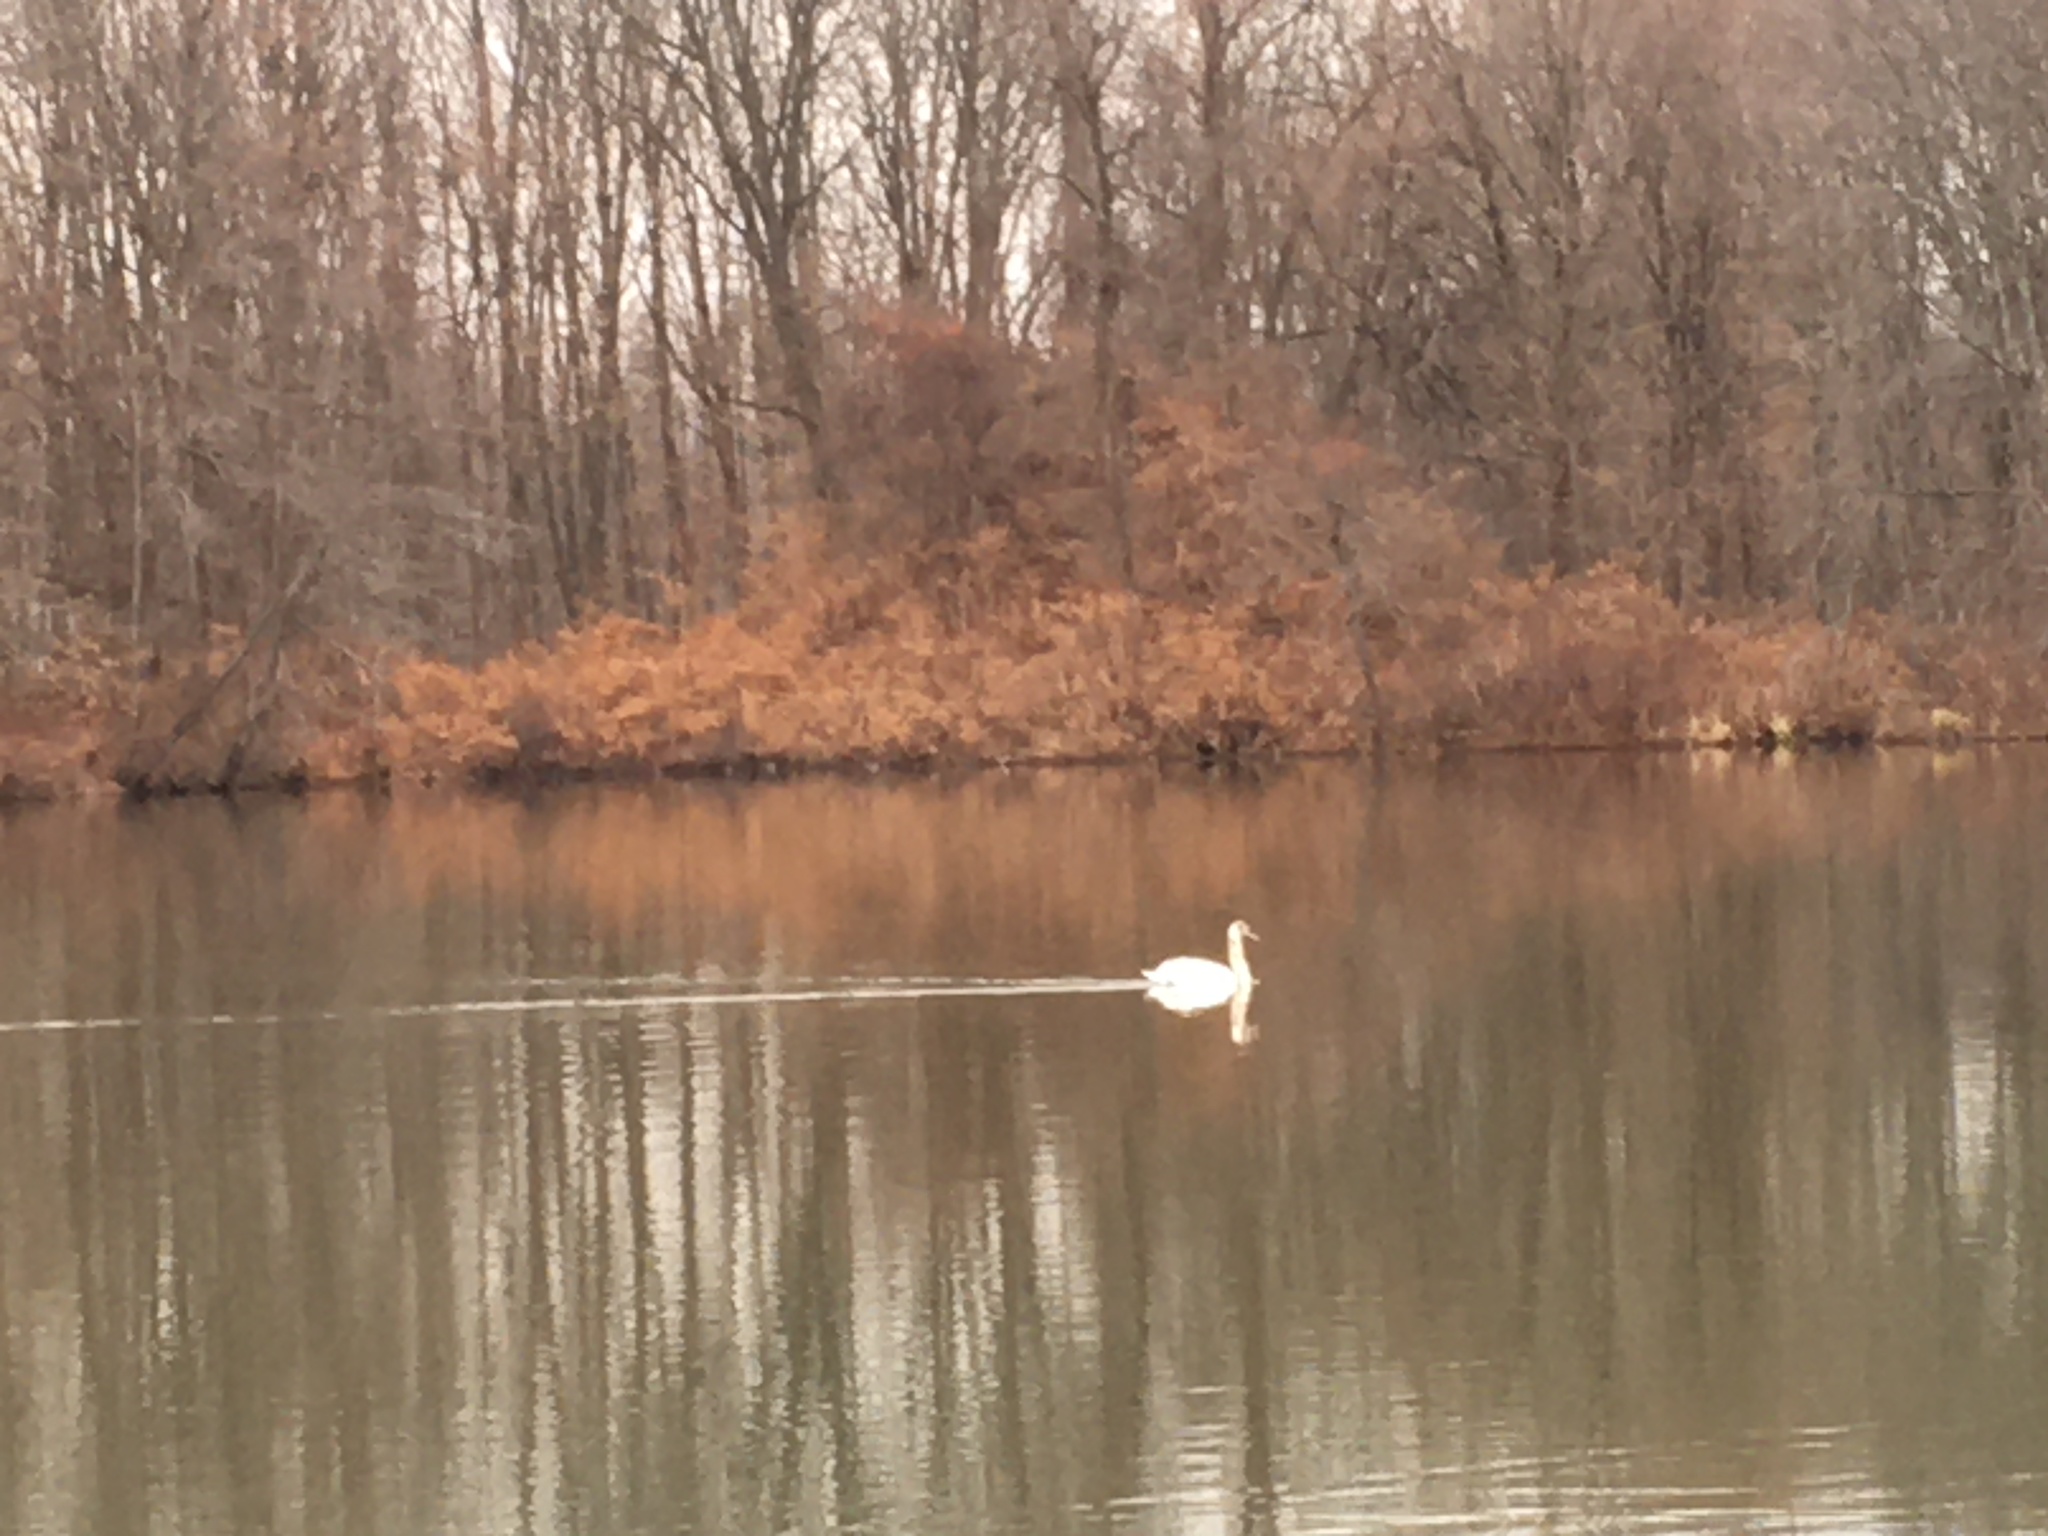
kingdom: Animalia
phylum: Chordata
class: Aves
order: Anseriformes
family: Anatidae
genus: Cygnus
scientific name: Cygnus olor
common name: Mute swan
